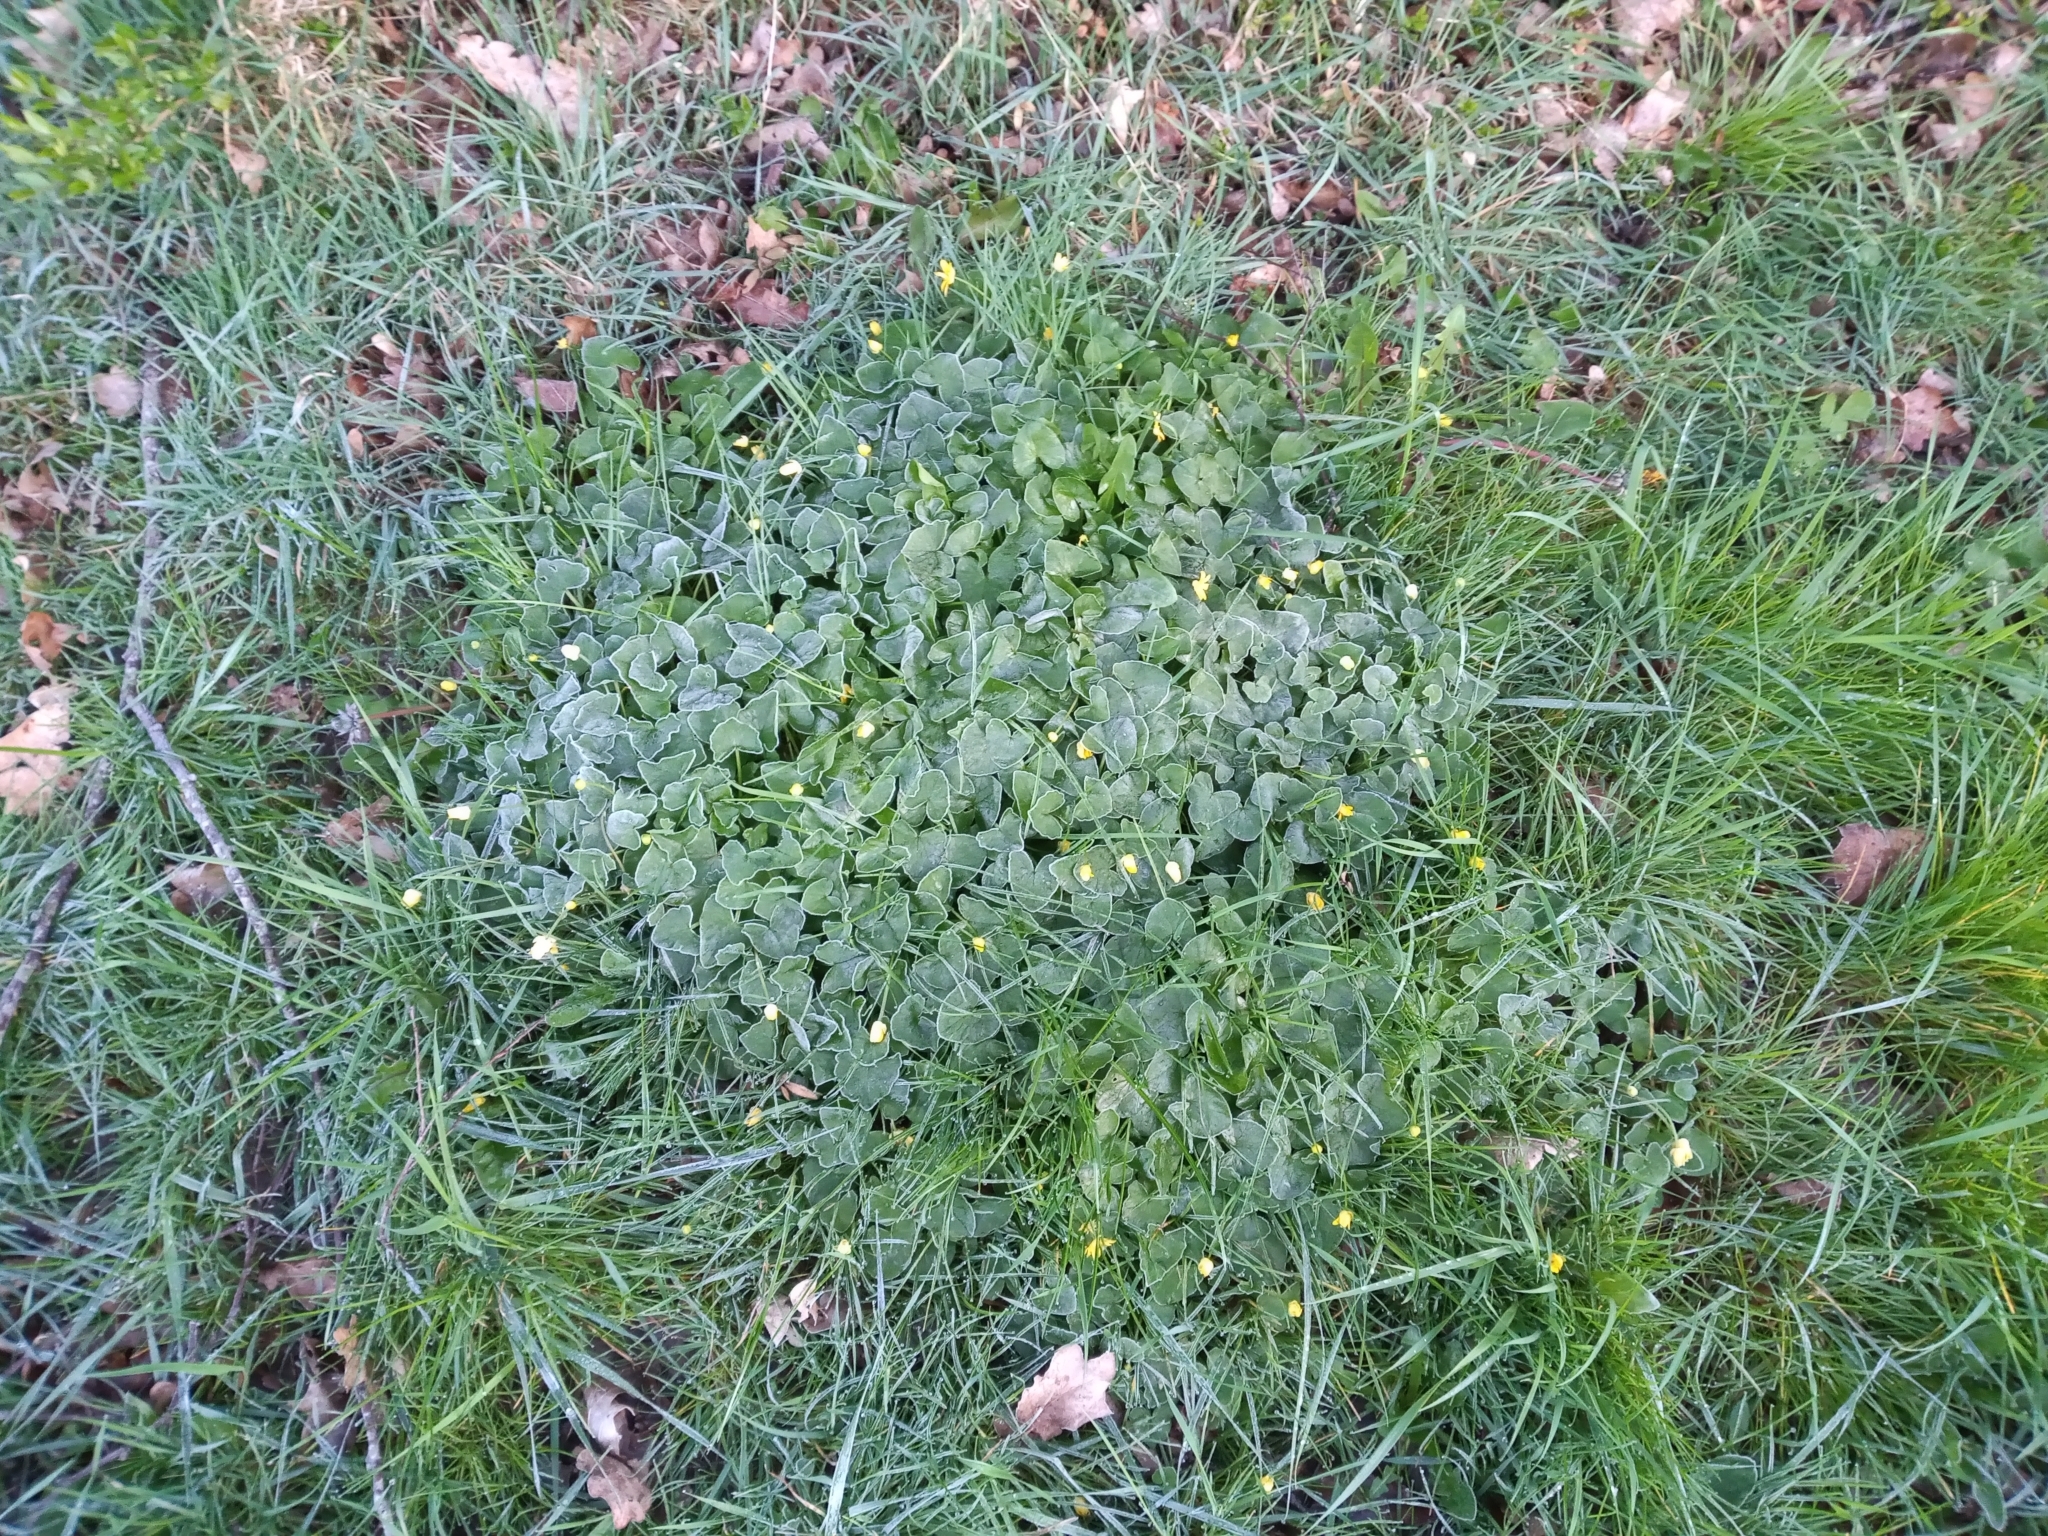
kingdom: Plantae
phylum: Tracheophyta
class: Magnoliopsida
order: Ranunculales
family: Ranunculaceae
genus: Ficaria
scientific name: Ficaria verna
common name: Lesser celandine
